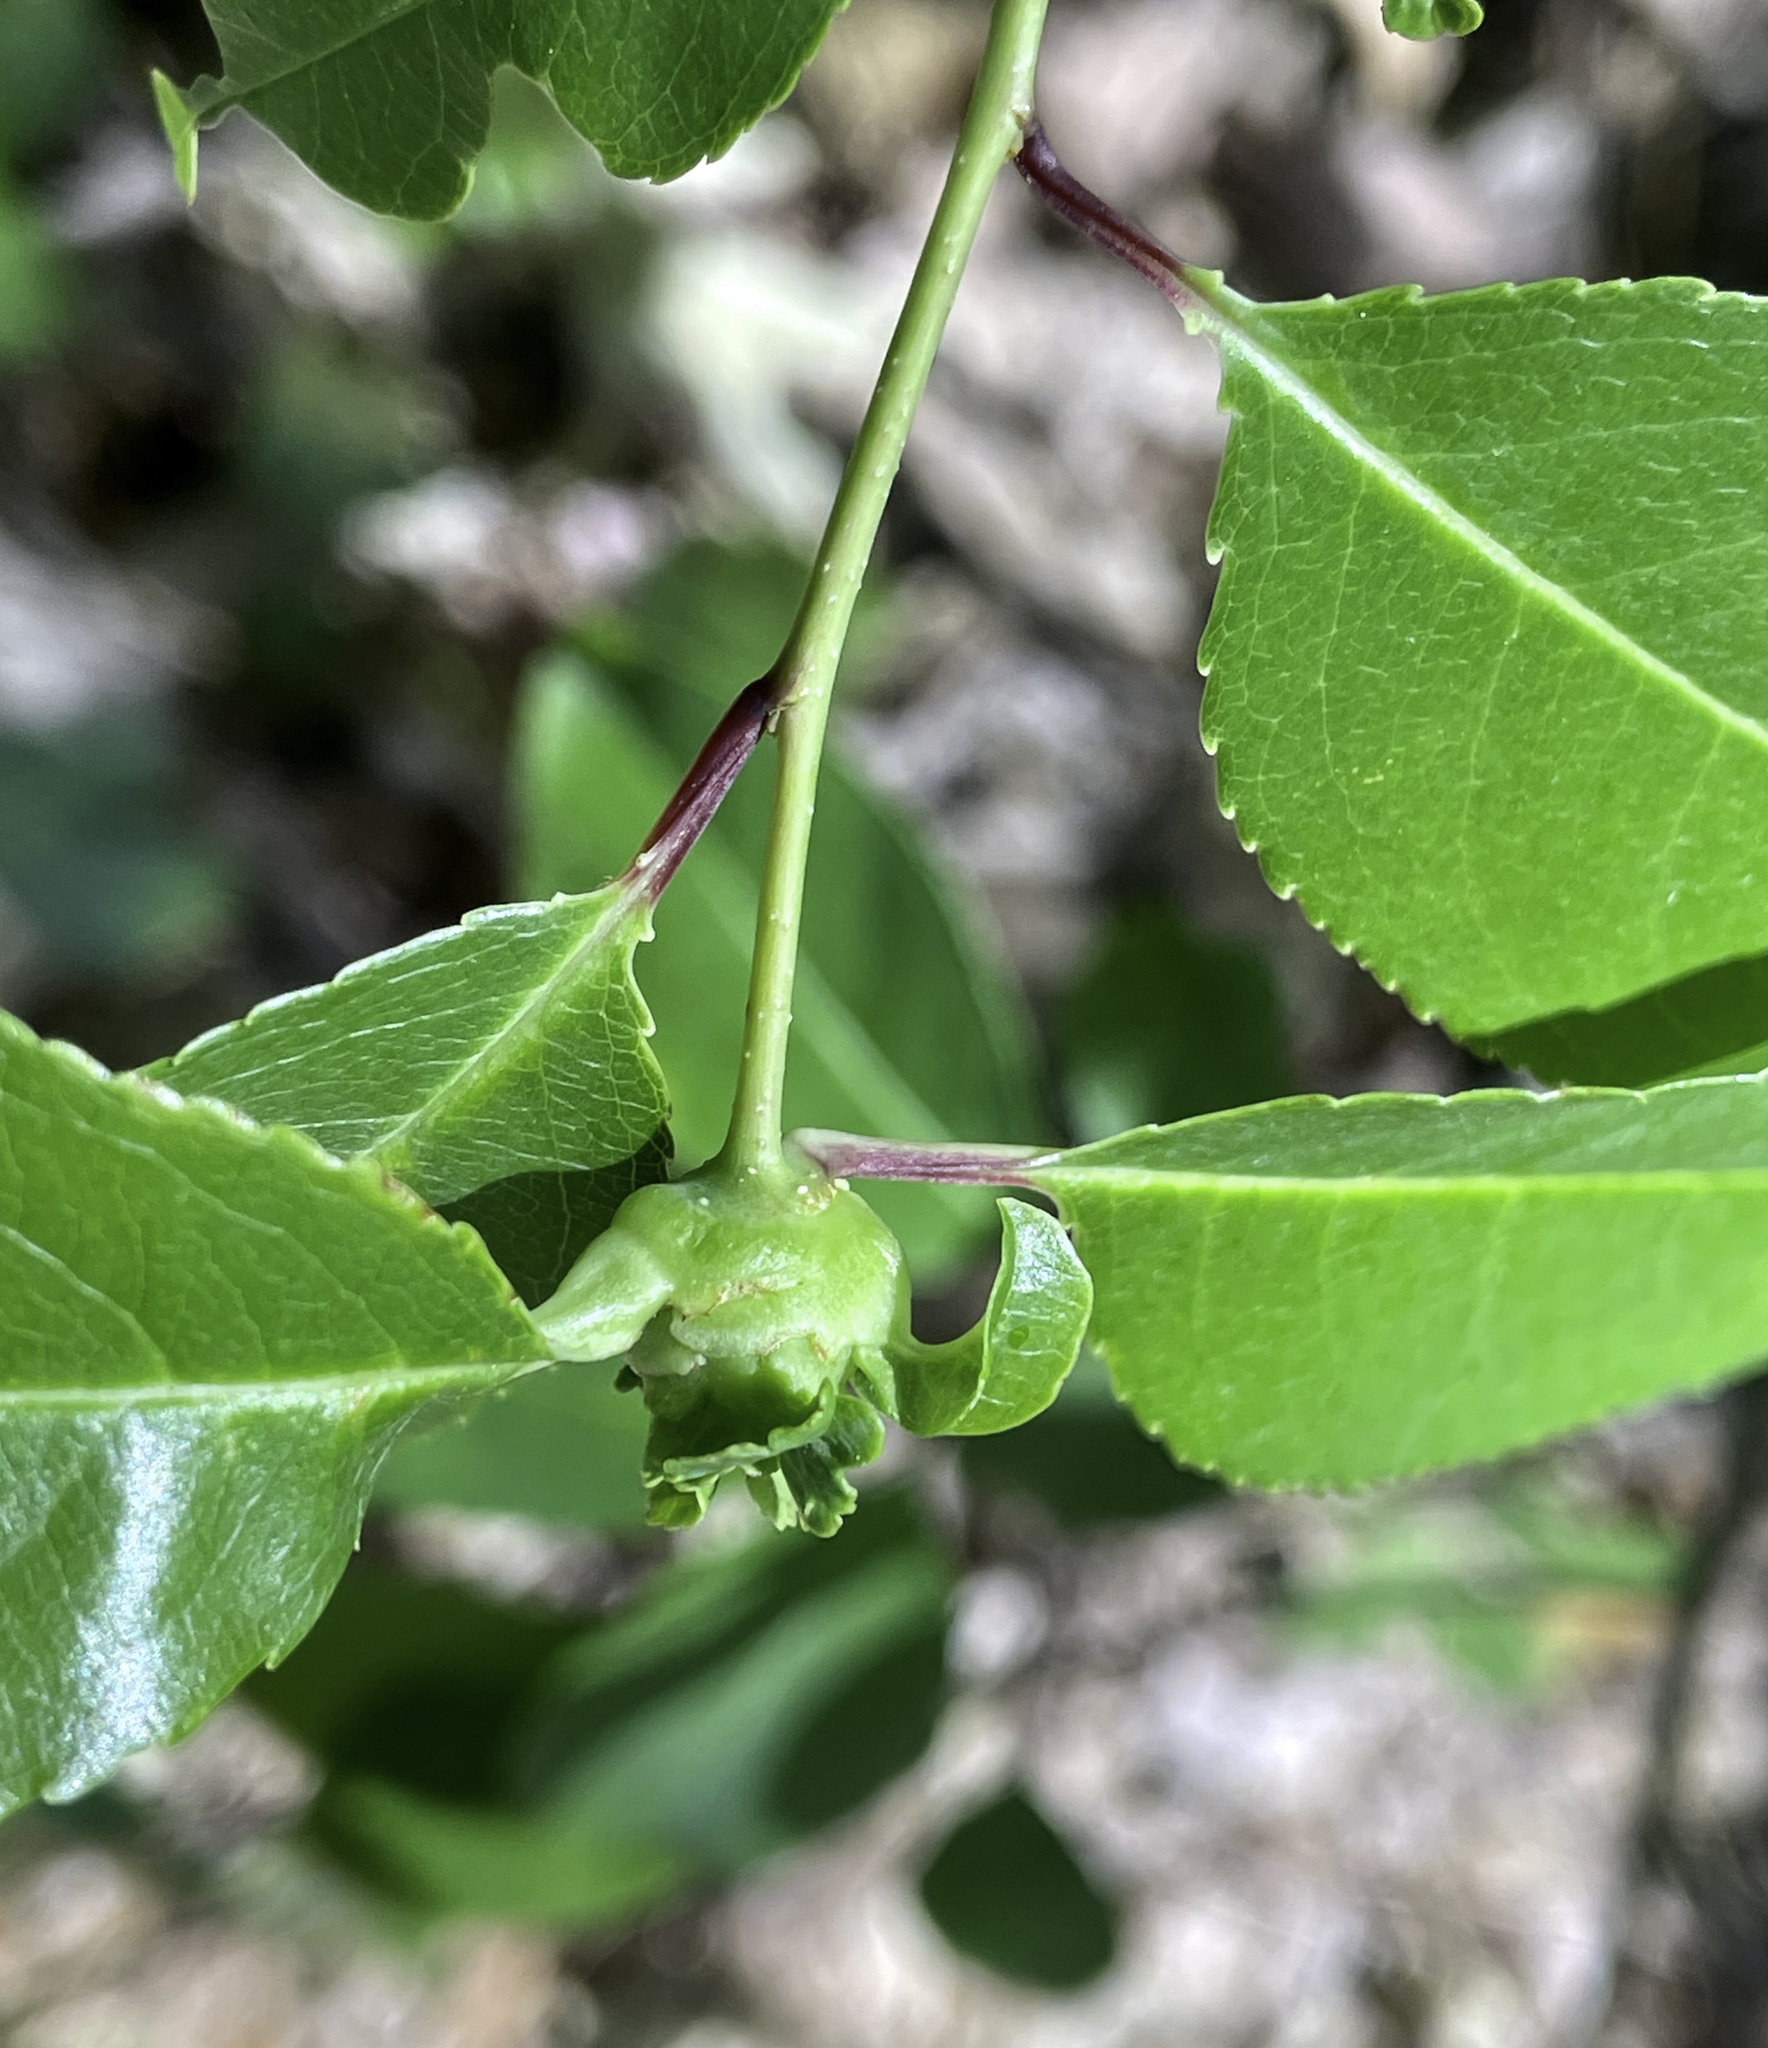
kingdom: Animalia
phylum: Arthropoda
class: Insecta
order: Diptera
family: Cecidomyiidae
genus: Contarinia
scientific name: Contarinia cerasiserotinae
